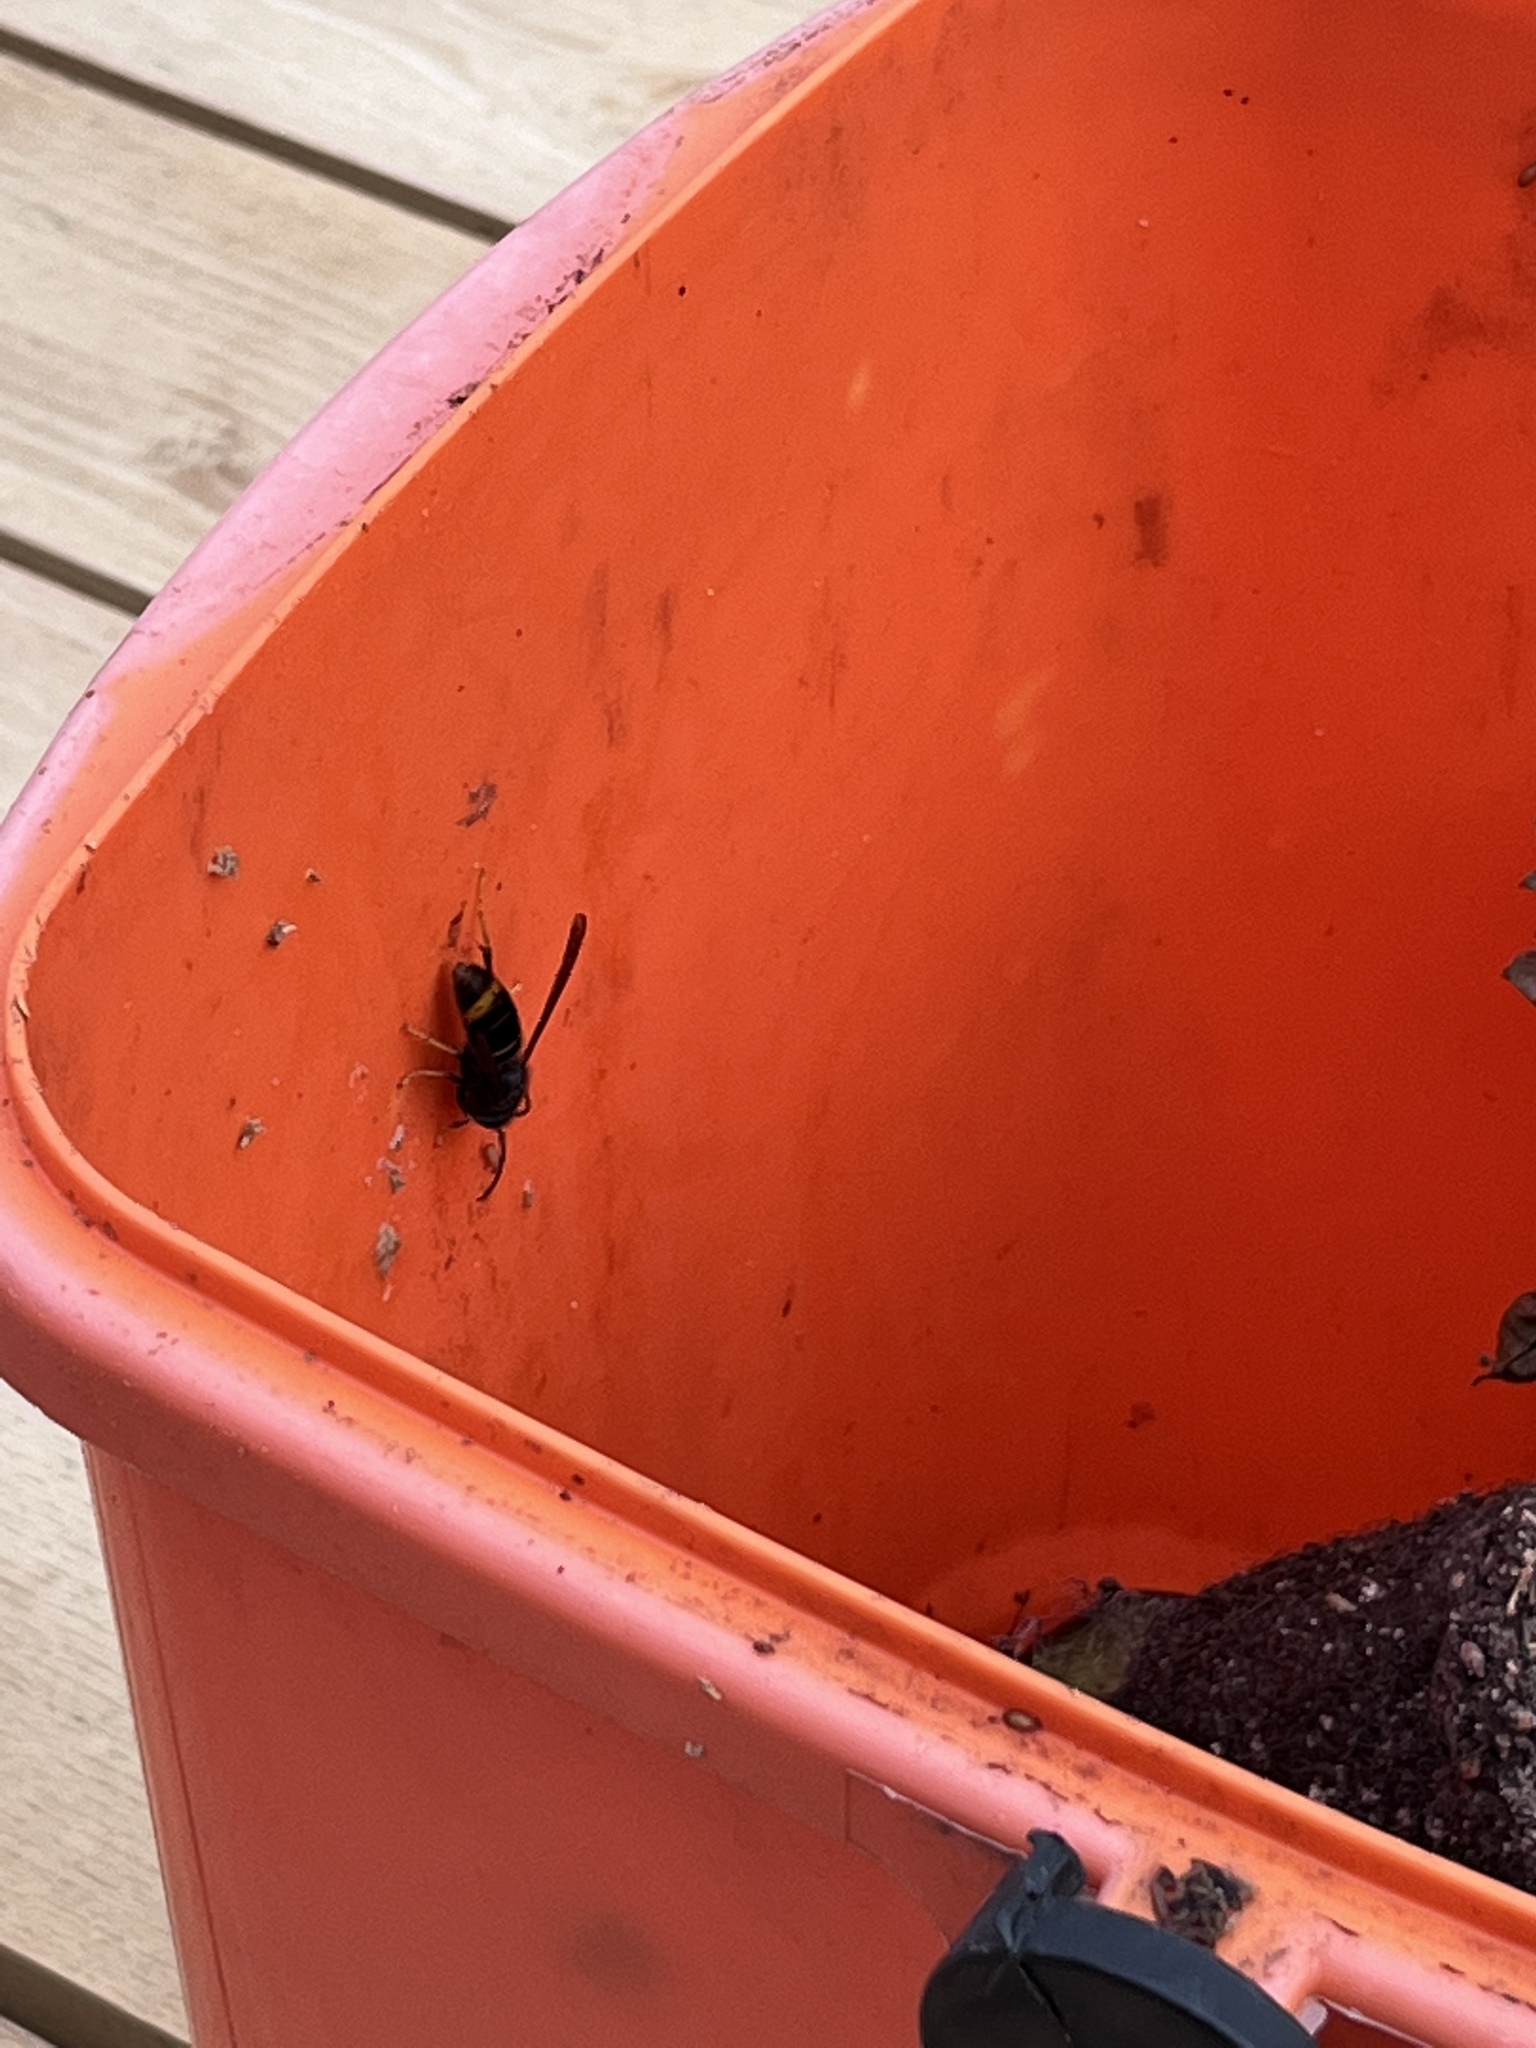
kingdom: Animalia
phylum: Arthropoda
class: Insecta
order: Hymenoptera
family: Vespidae
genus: Vespa
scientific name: Vespa velutina
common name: Asian hornet
